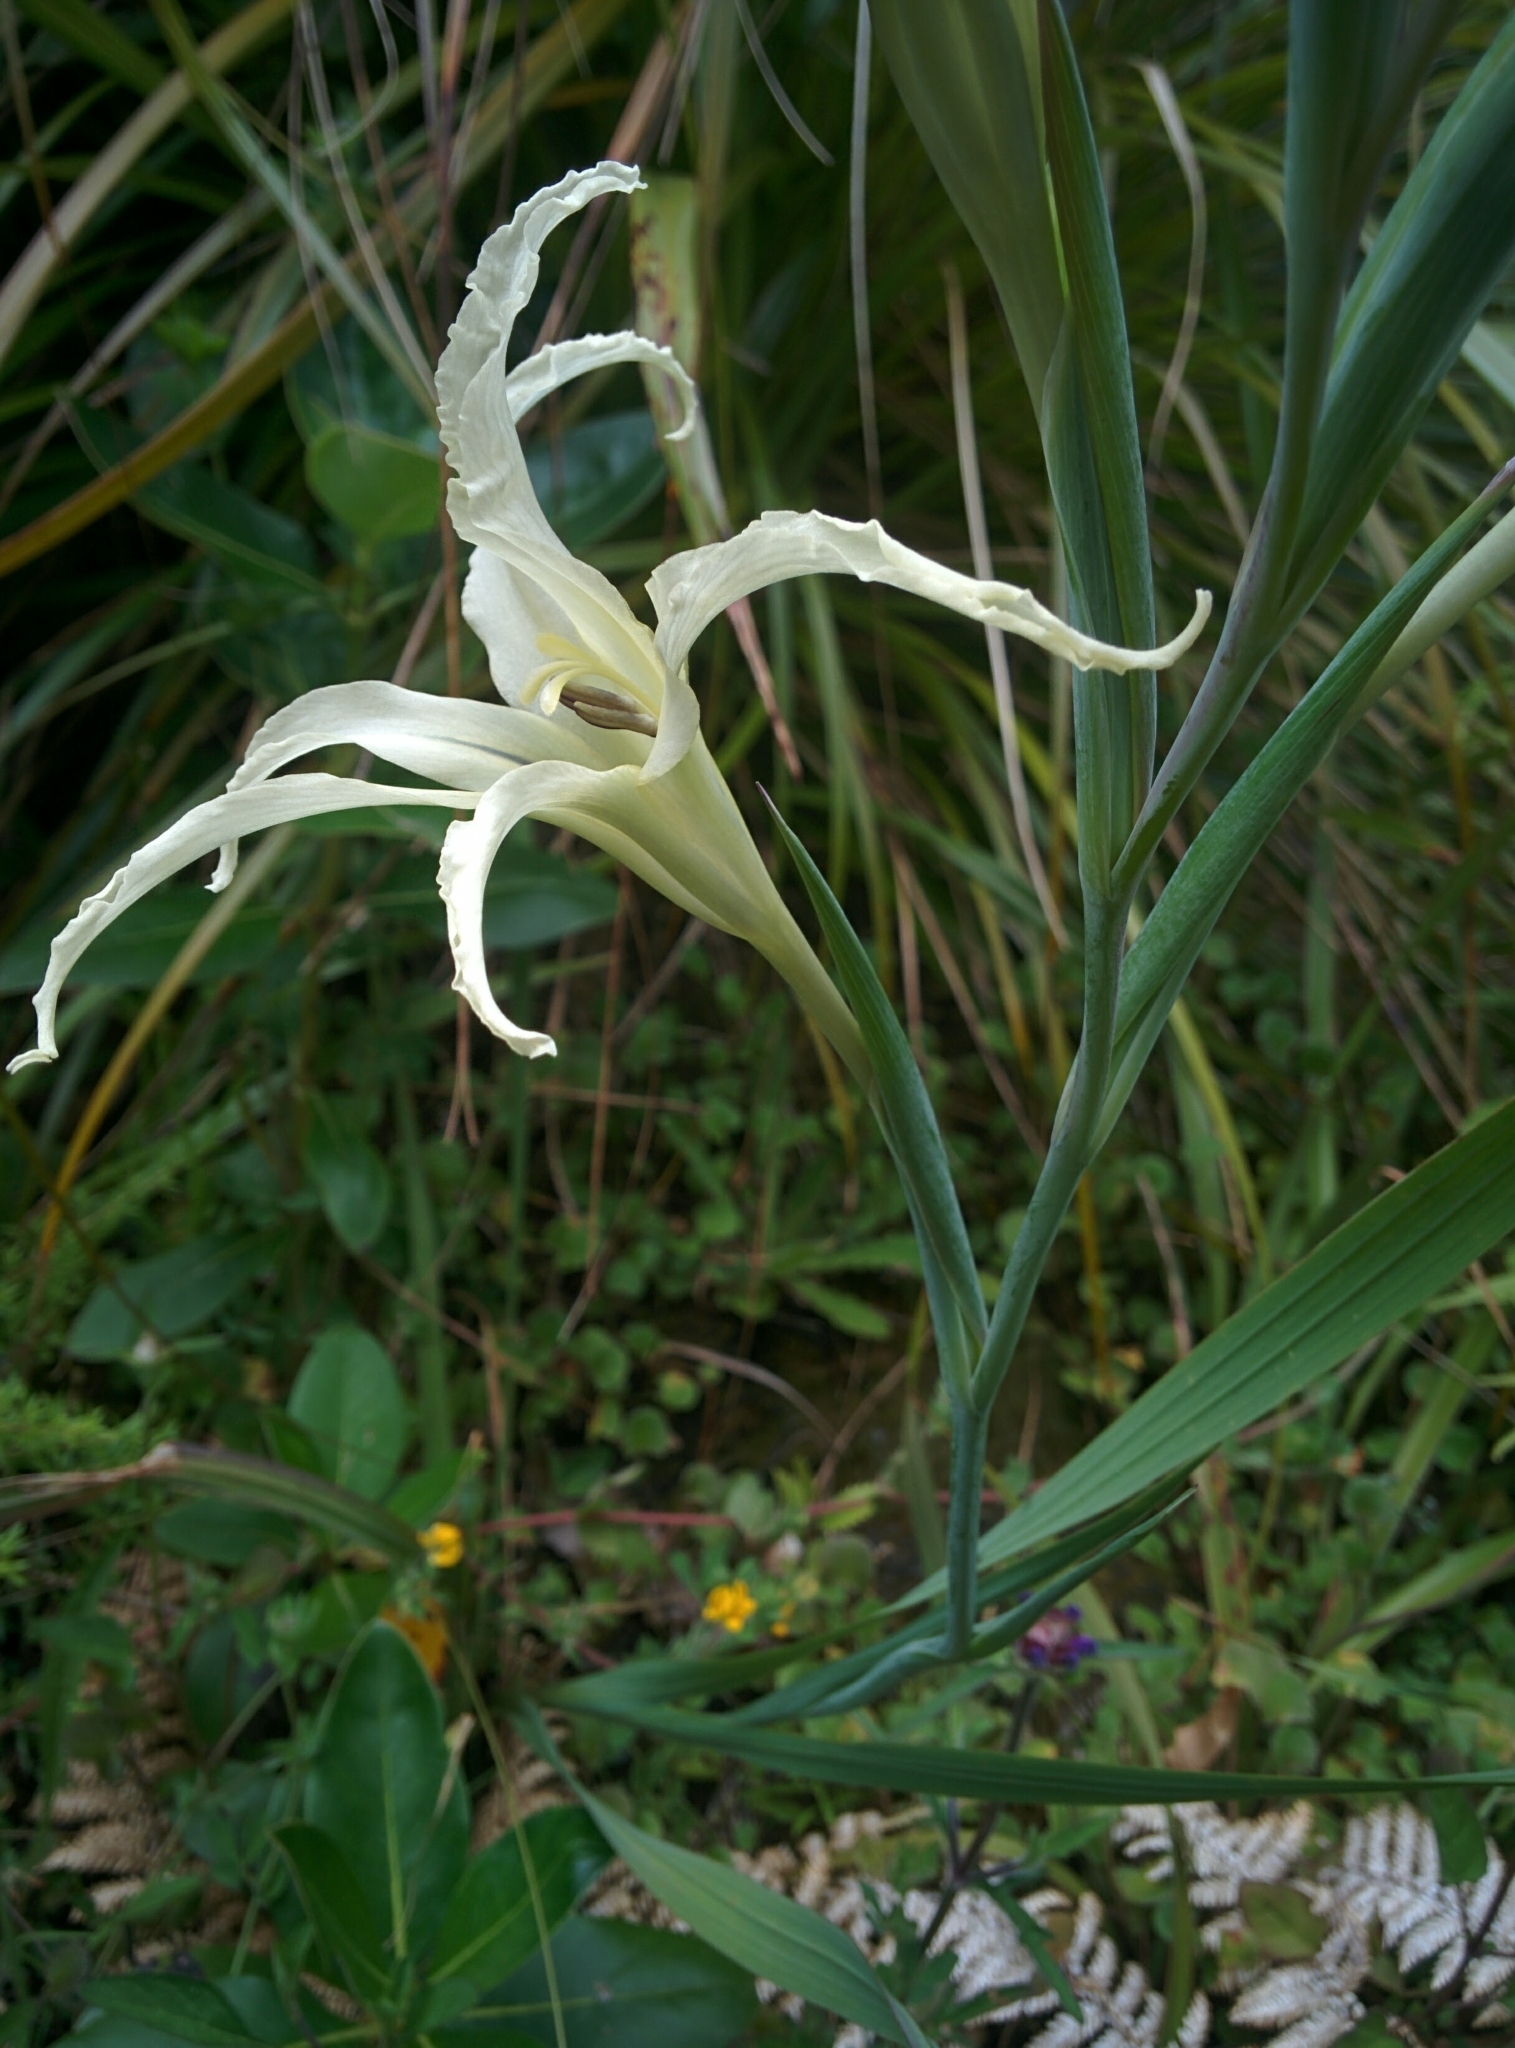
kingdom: Plantae
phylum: Tracheophyta
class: Liliopsida
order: Asparagales
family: Iridaceae
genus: Gladiolus
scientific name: Gladiolus undulatus
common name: Large painted-lady
